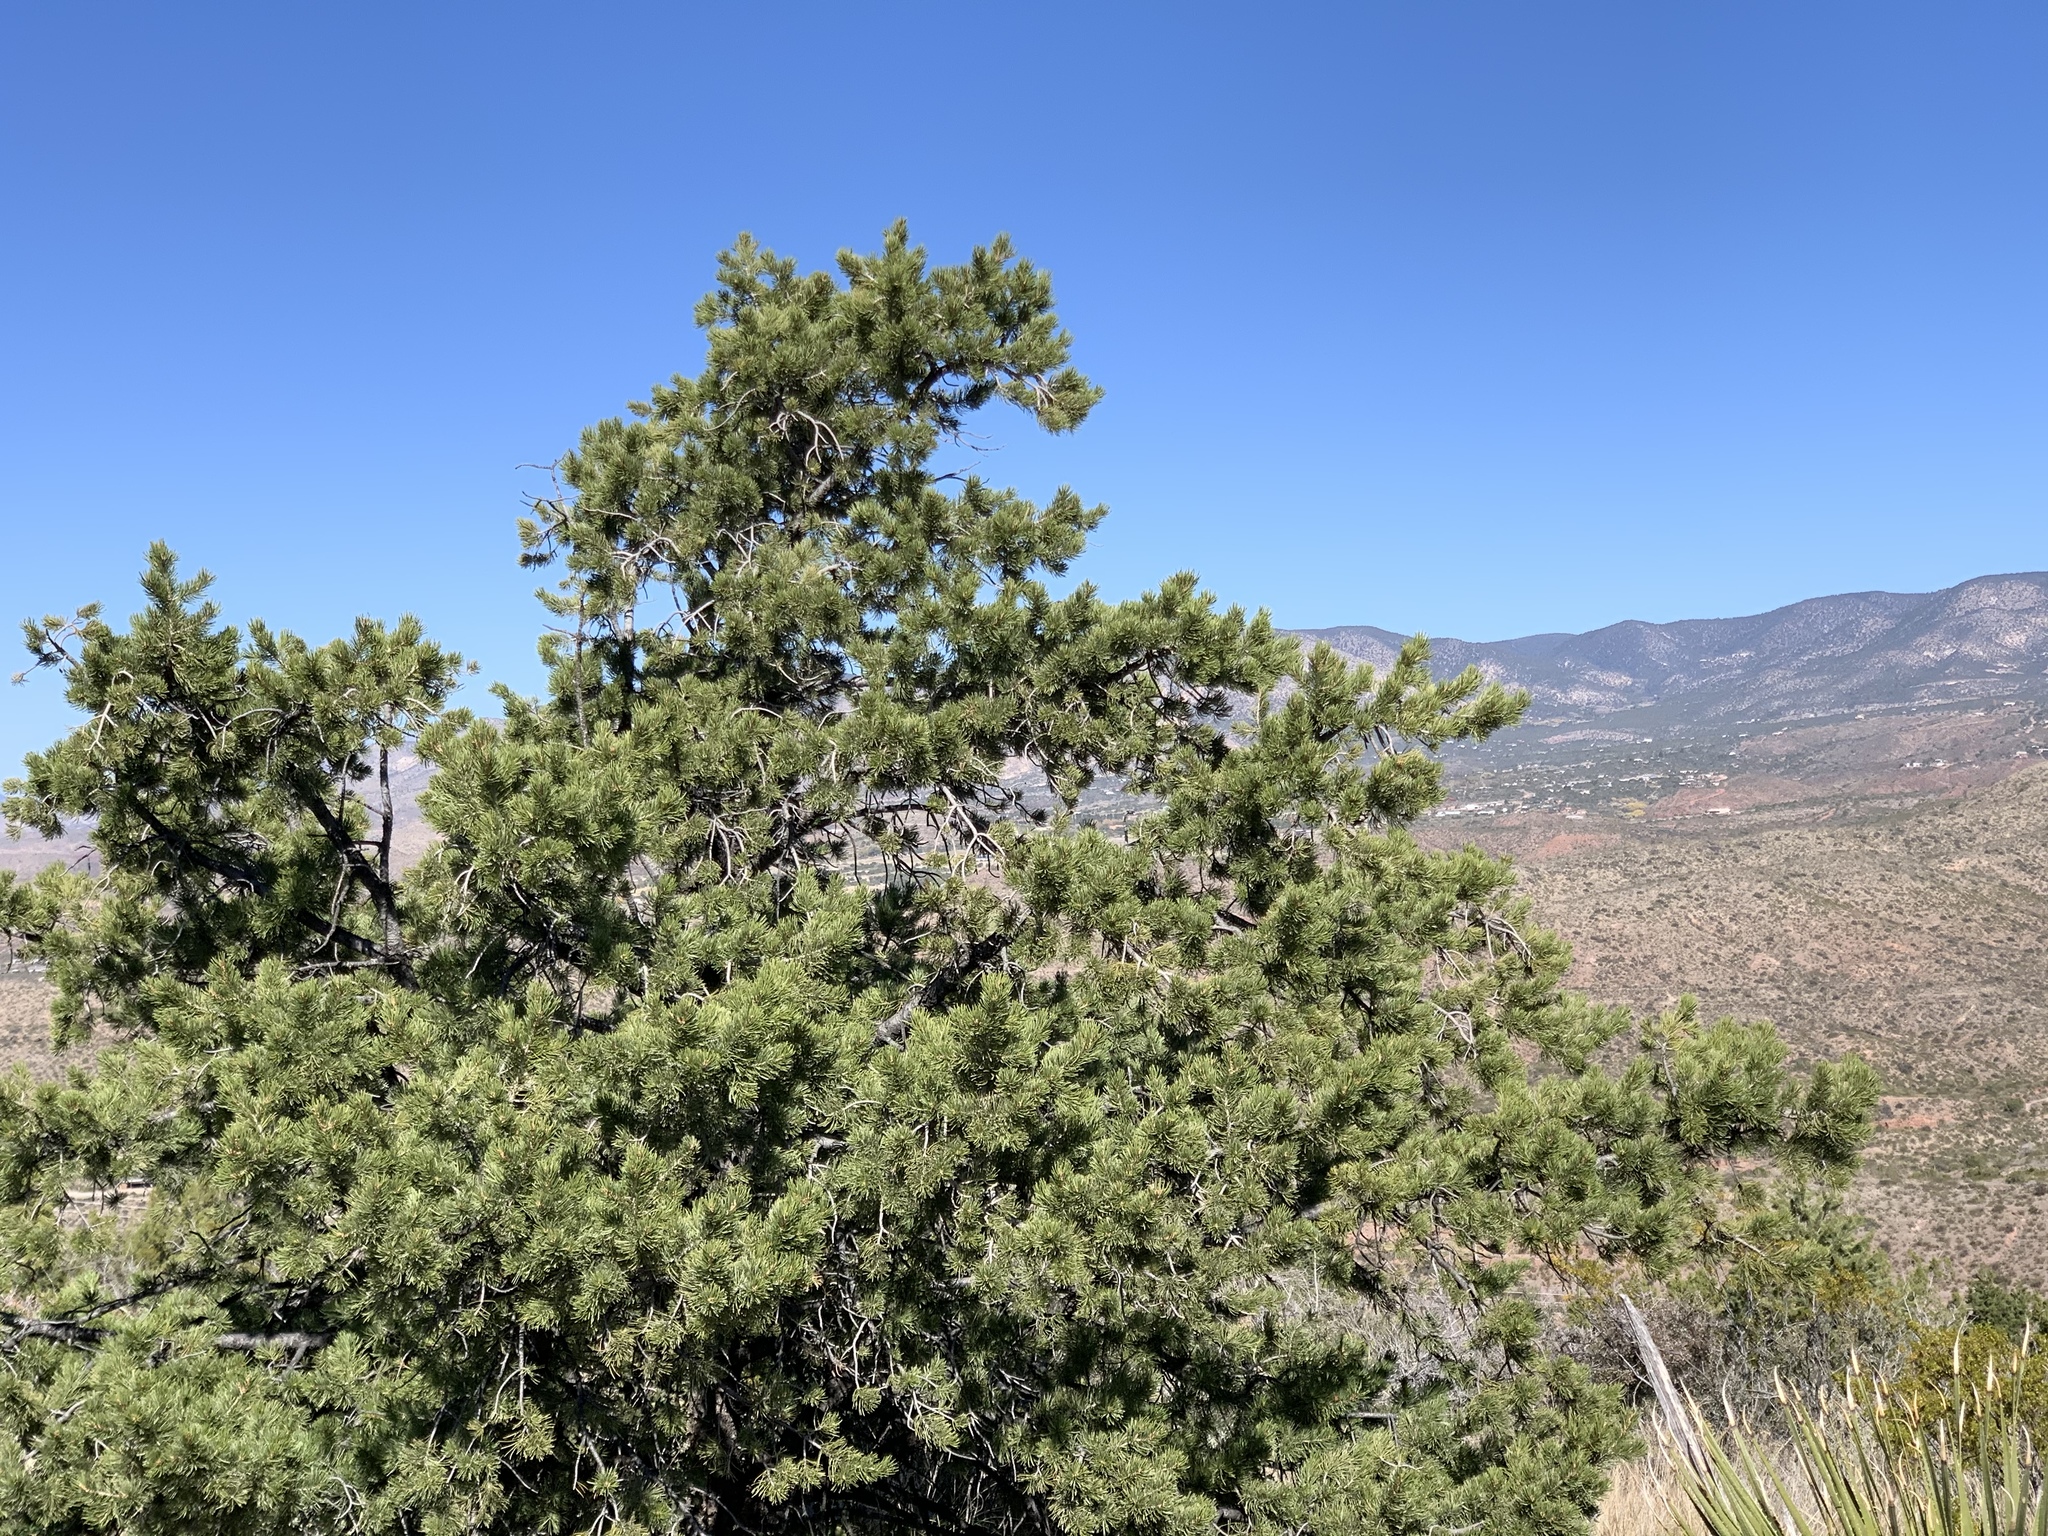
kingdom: Plantae
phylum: Tracheophyta
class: Pinopsida
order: Pinales
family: Pinaceae
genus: Pinus
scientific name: Pinus edulis
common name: Colorado pinyon
